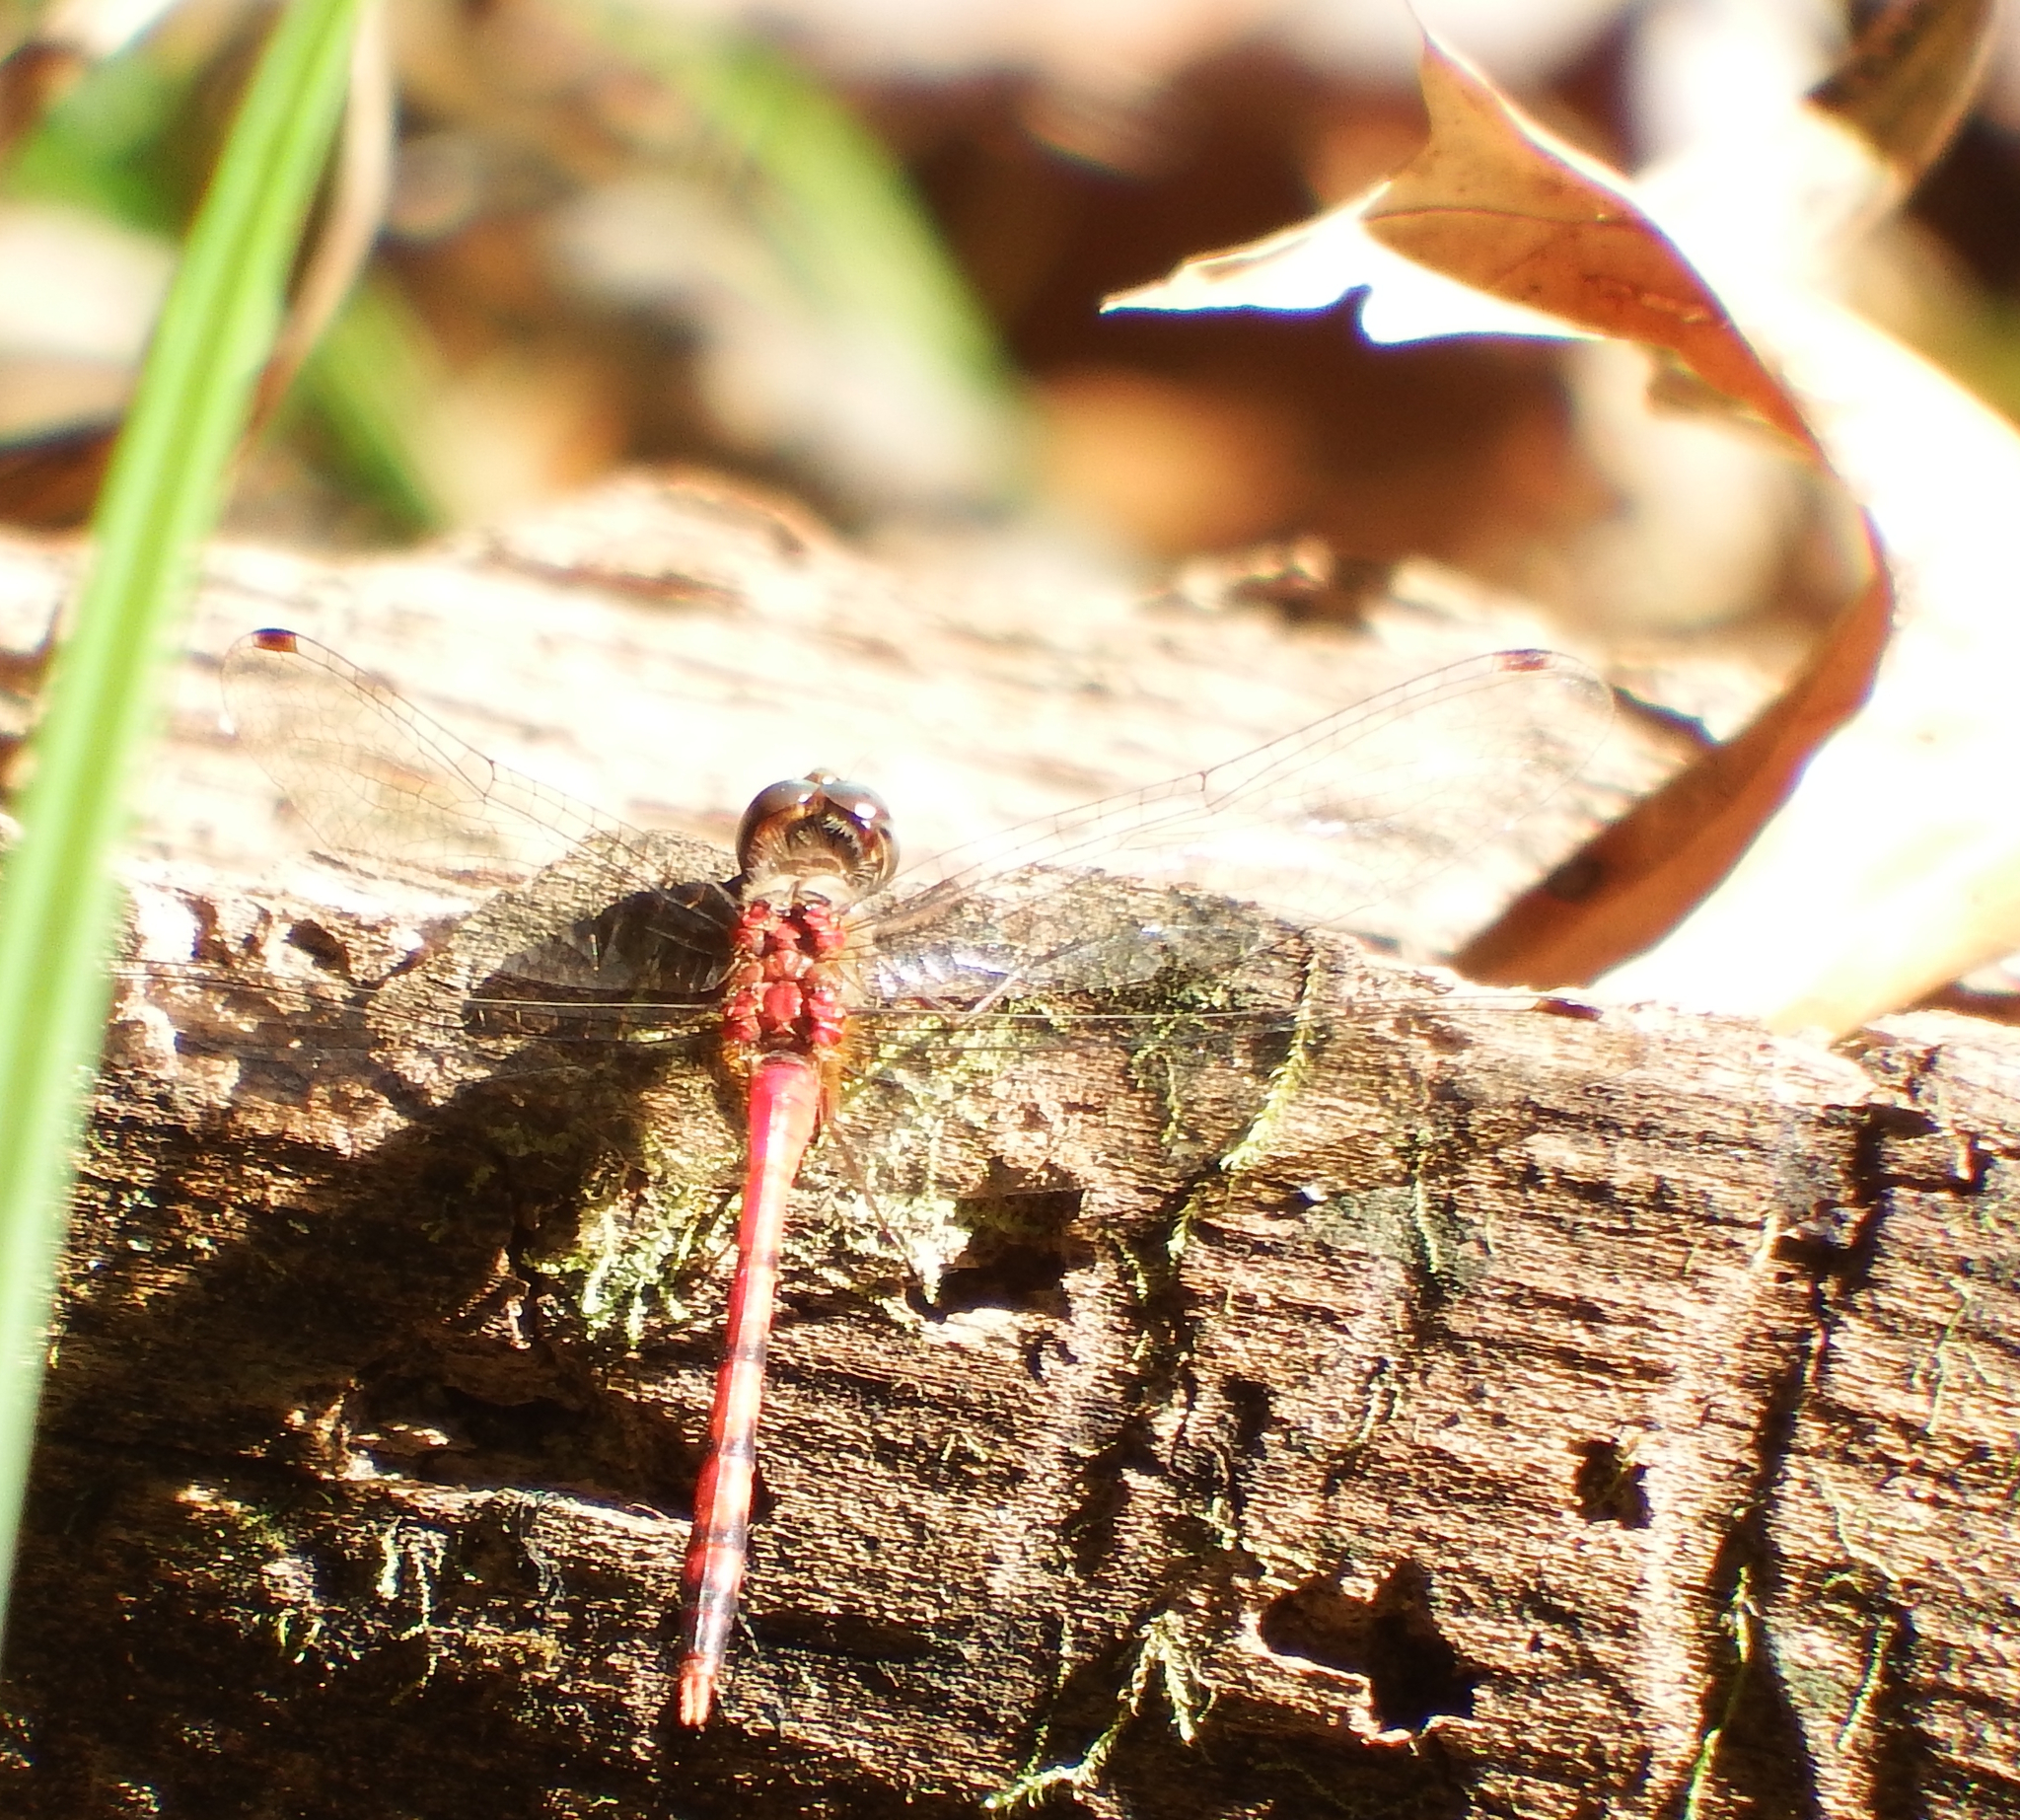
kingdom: Animalia
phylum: Arthropoda
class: Insecta
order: Odonata
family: Libellulidae
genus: Sympetrum
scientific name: Sympetrum ambiguum
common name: Blue-faced meadowhawk
